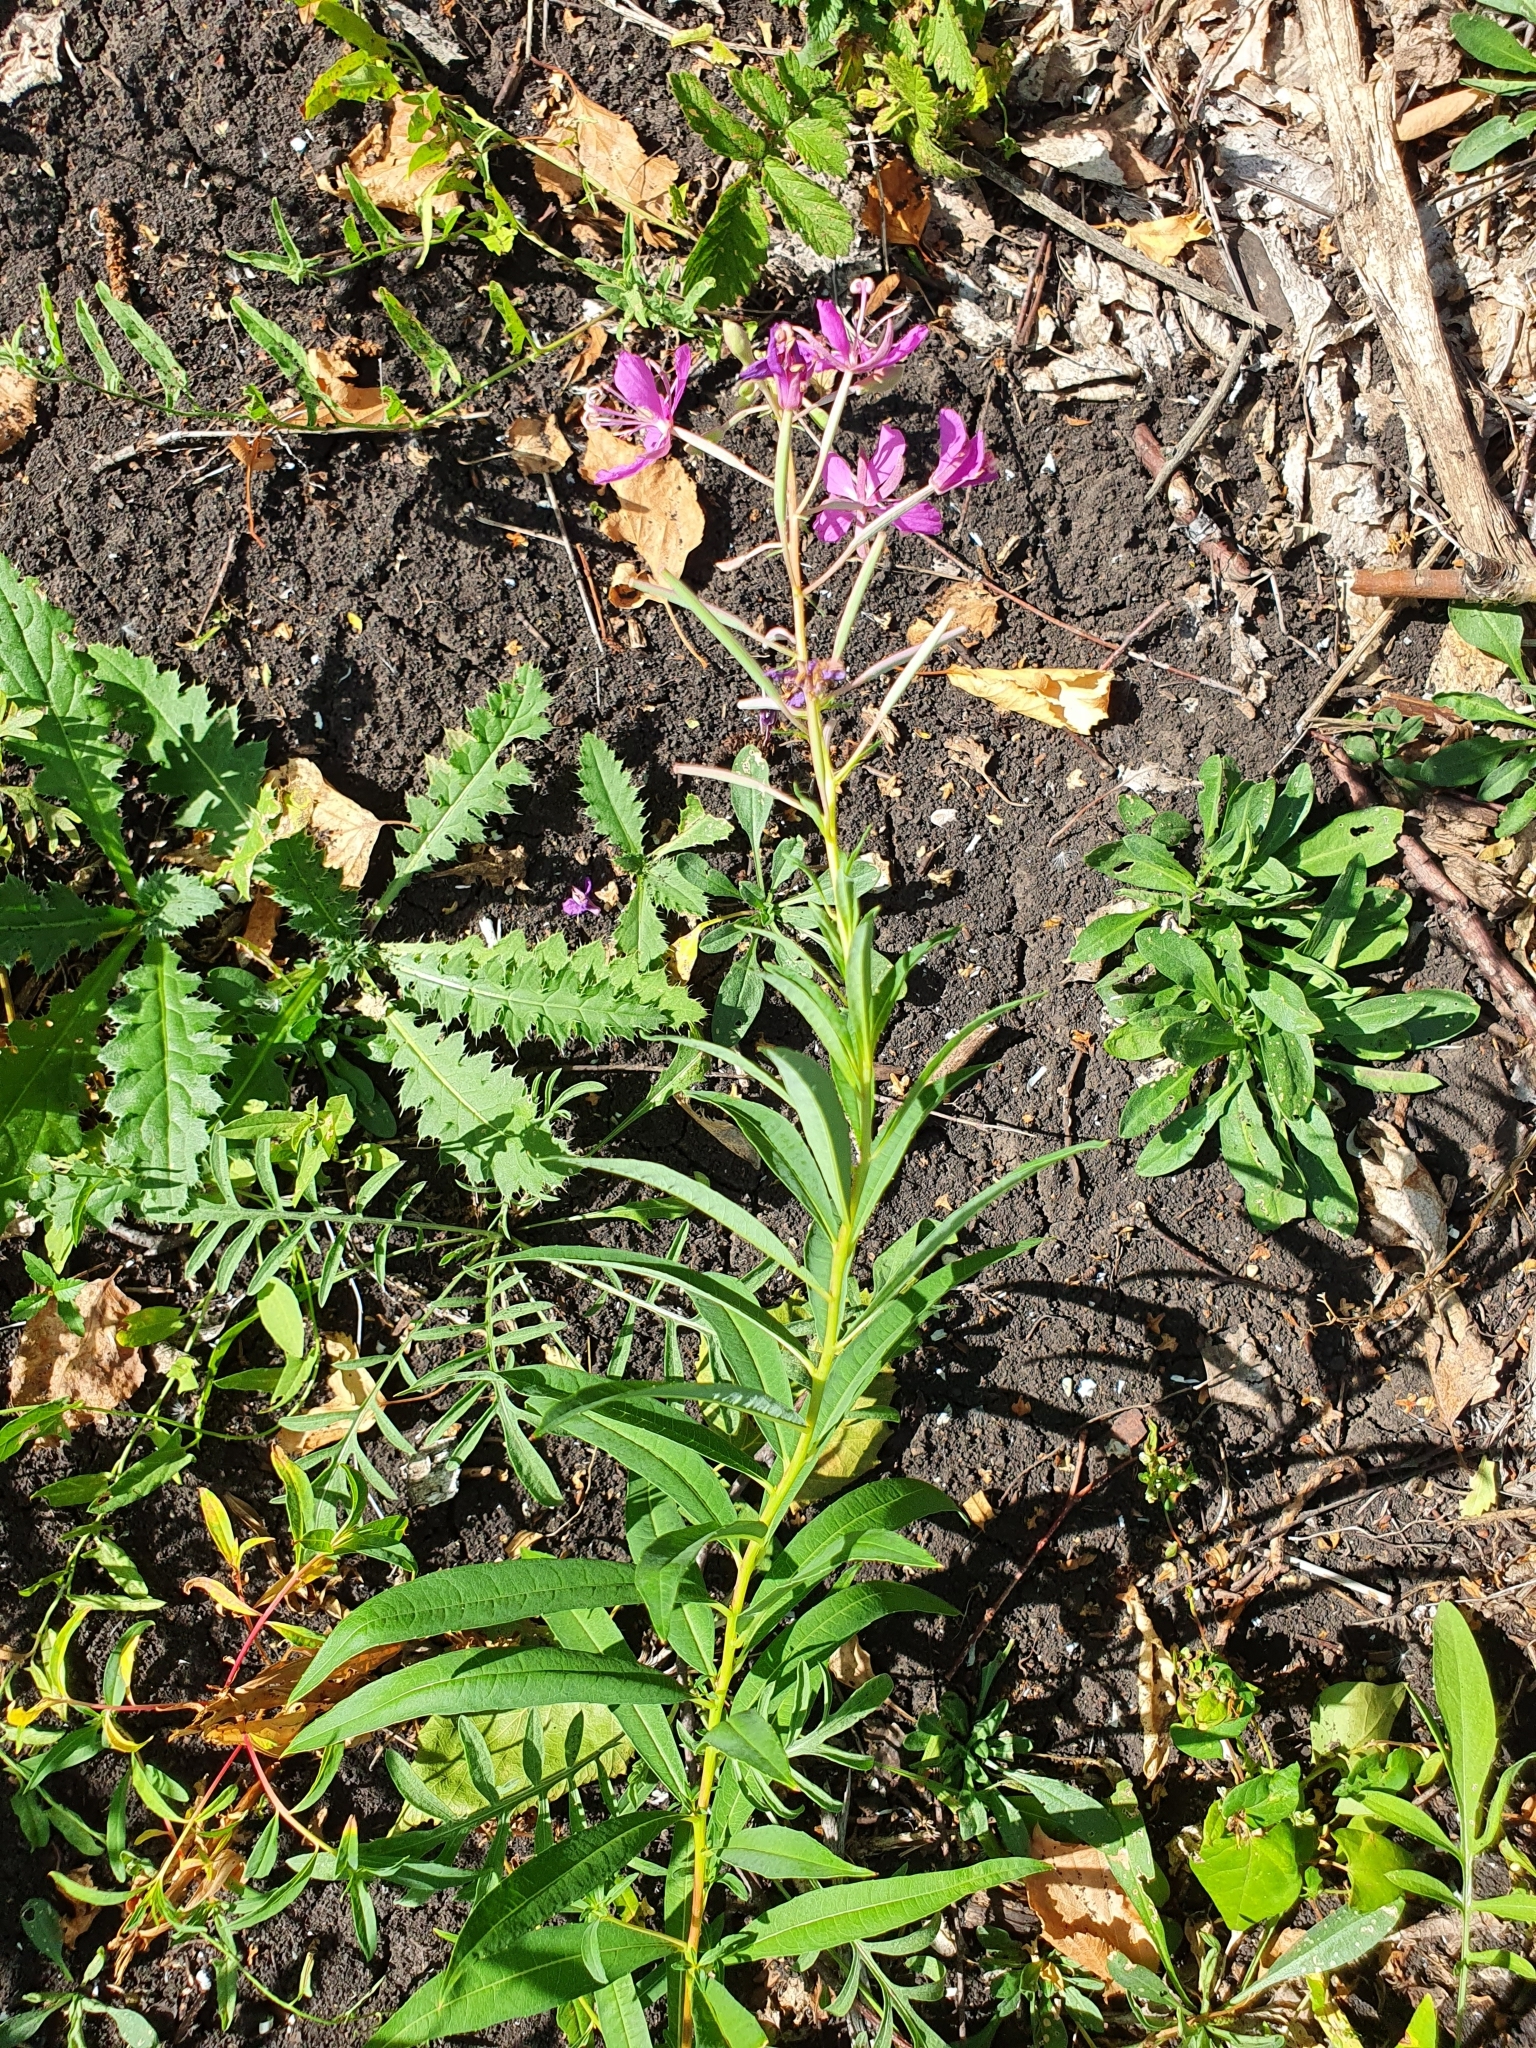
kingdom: Plantae
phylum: Tracheophyta
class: Magnoliopsida
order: Myrtales
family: Onagraceae
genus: Chamaenerion
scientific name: Chamaenerion angustifolium
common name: Fireweed
